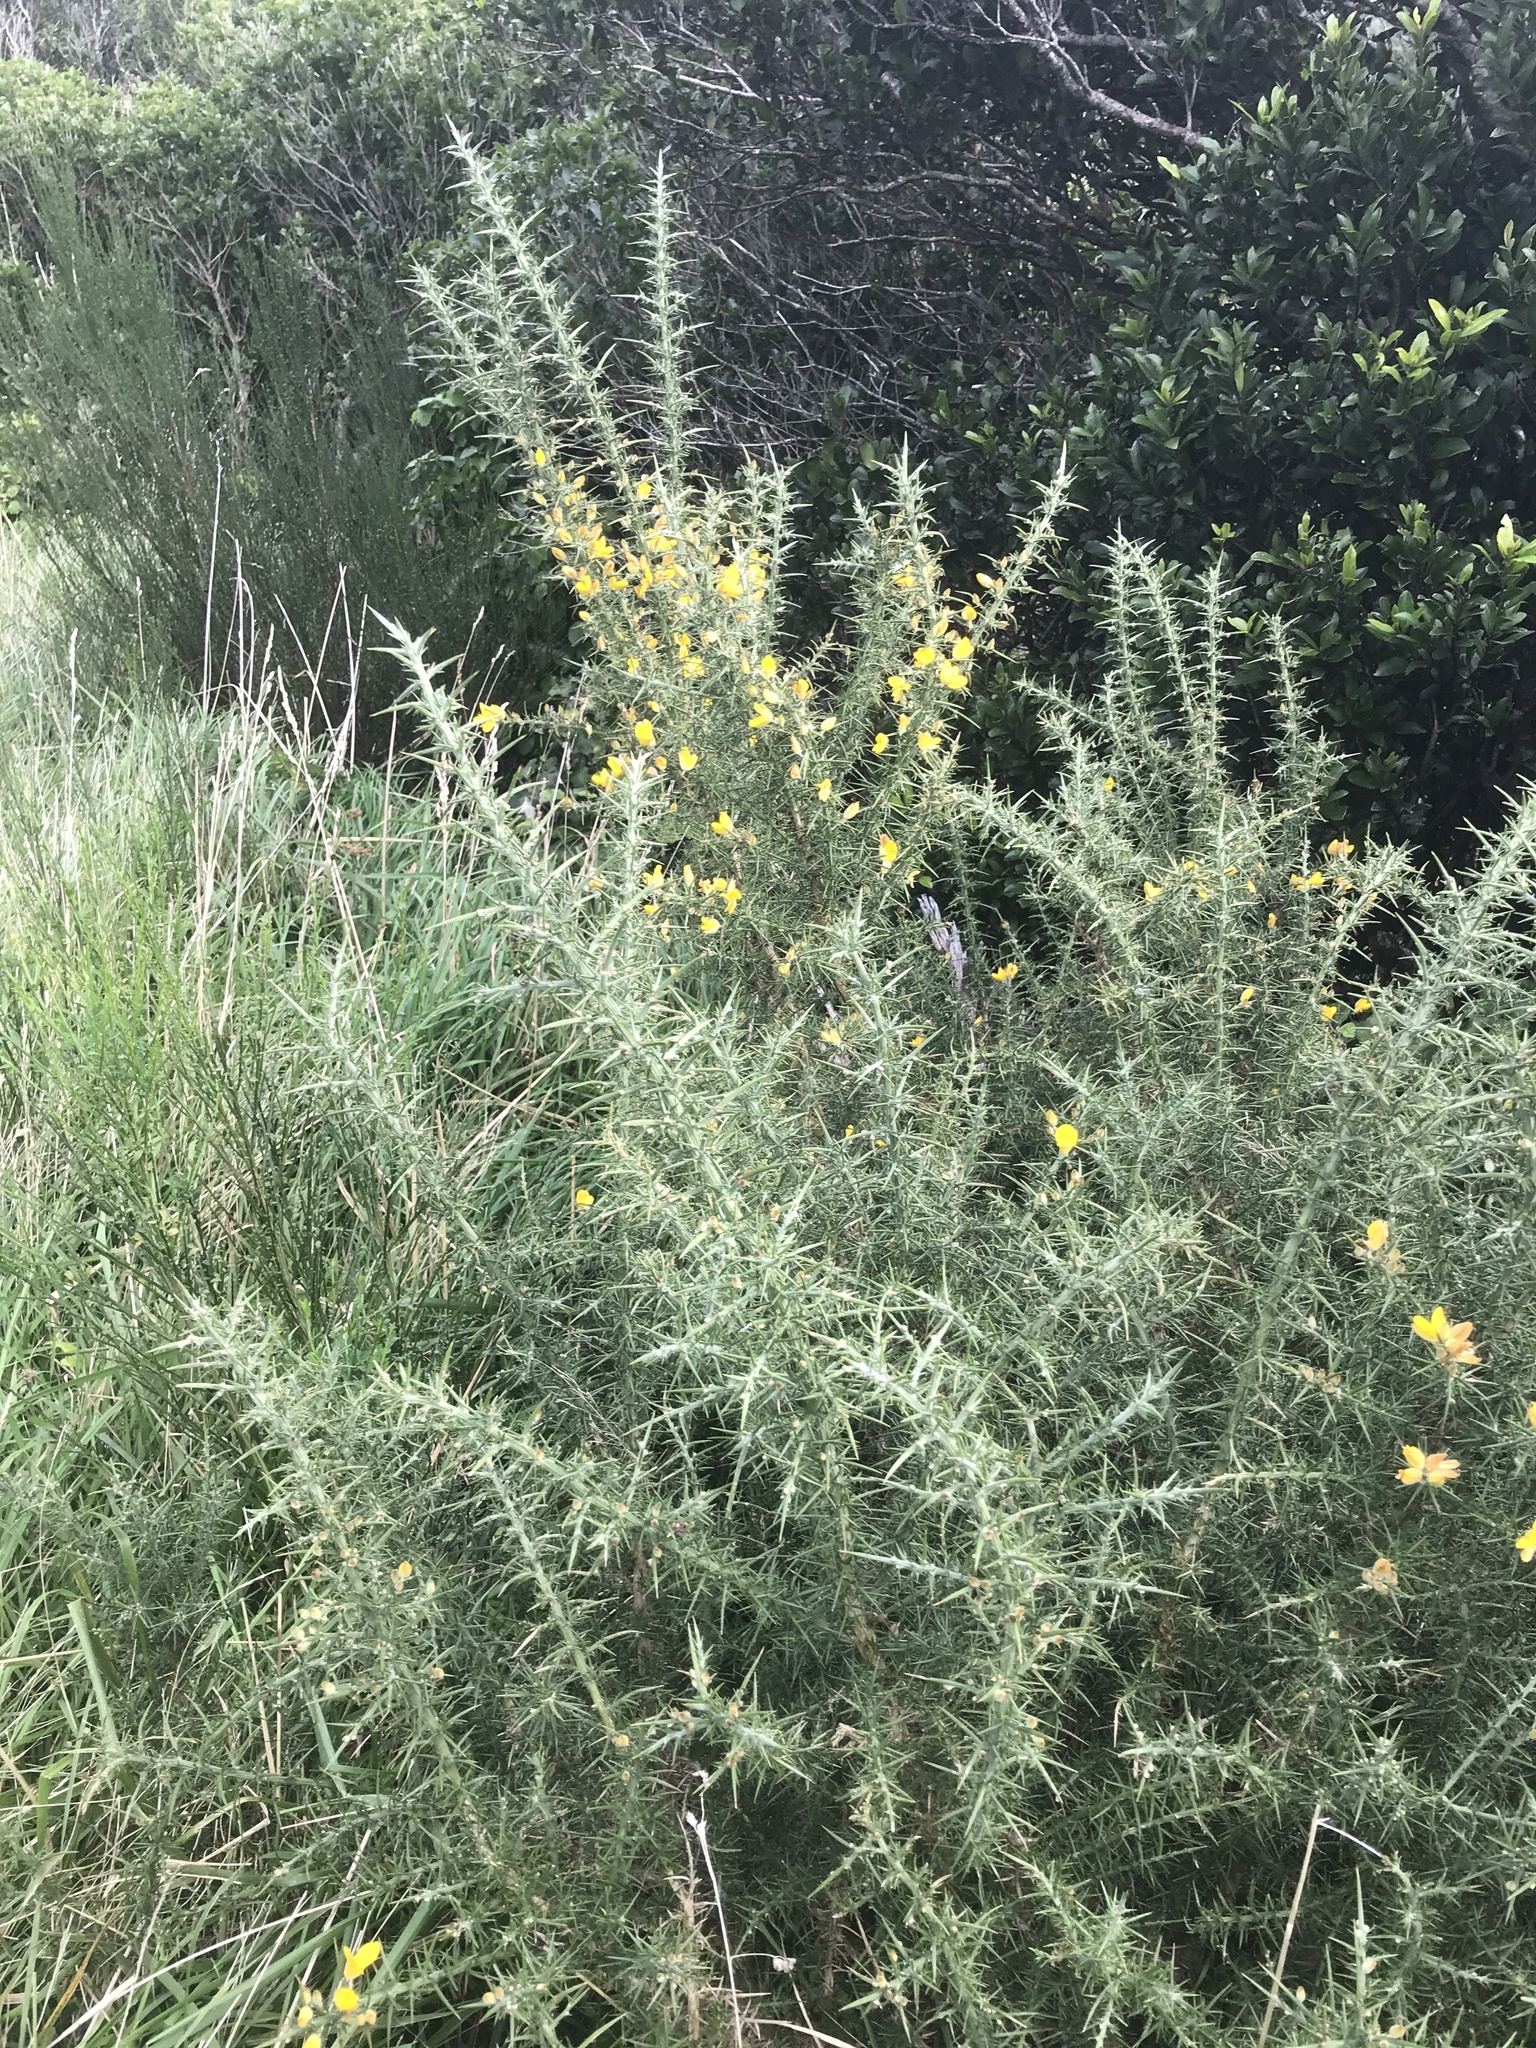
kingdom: Plantae
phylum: Tracheophyta
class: Magnoliopsida
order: Fabales
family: Fabaceae
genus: Ulex
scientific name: Ulex europaeus
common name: Common gorse
